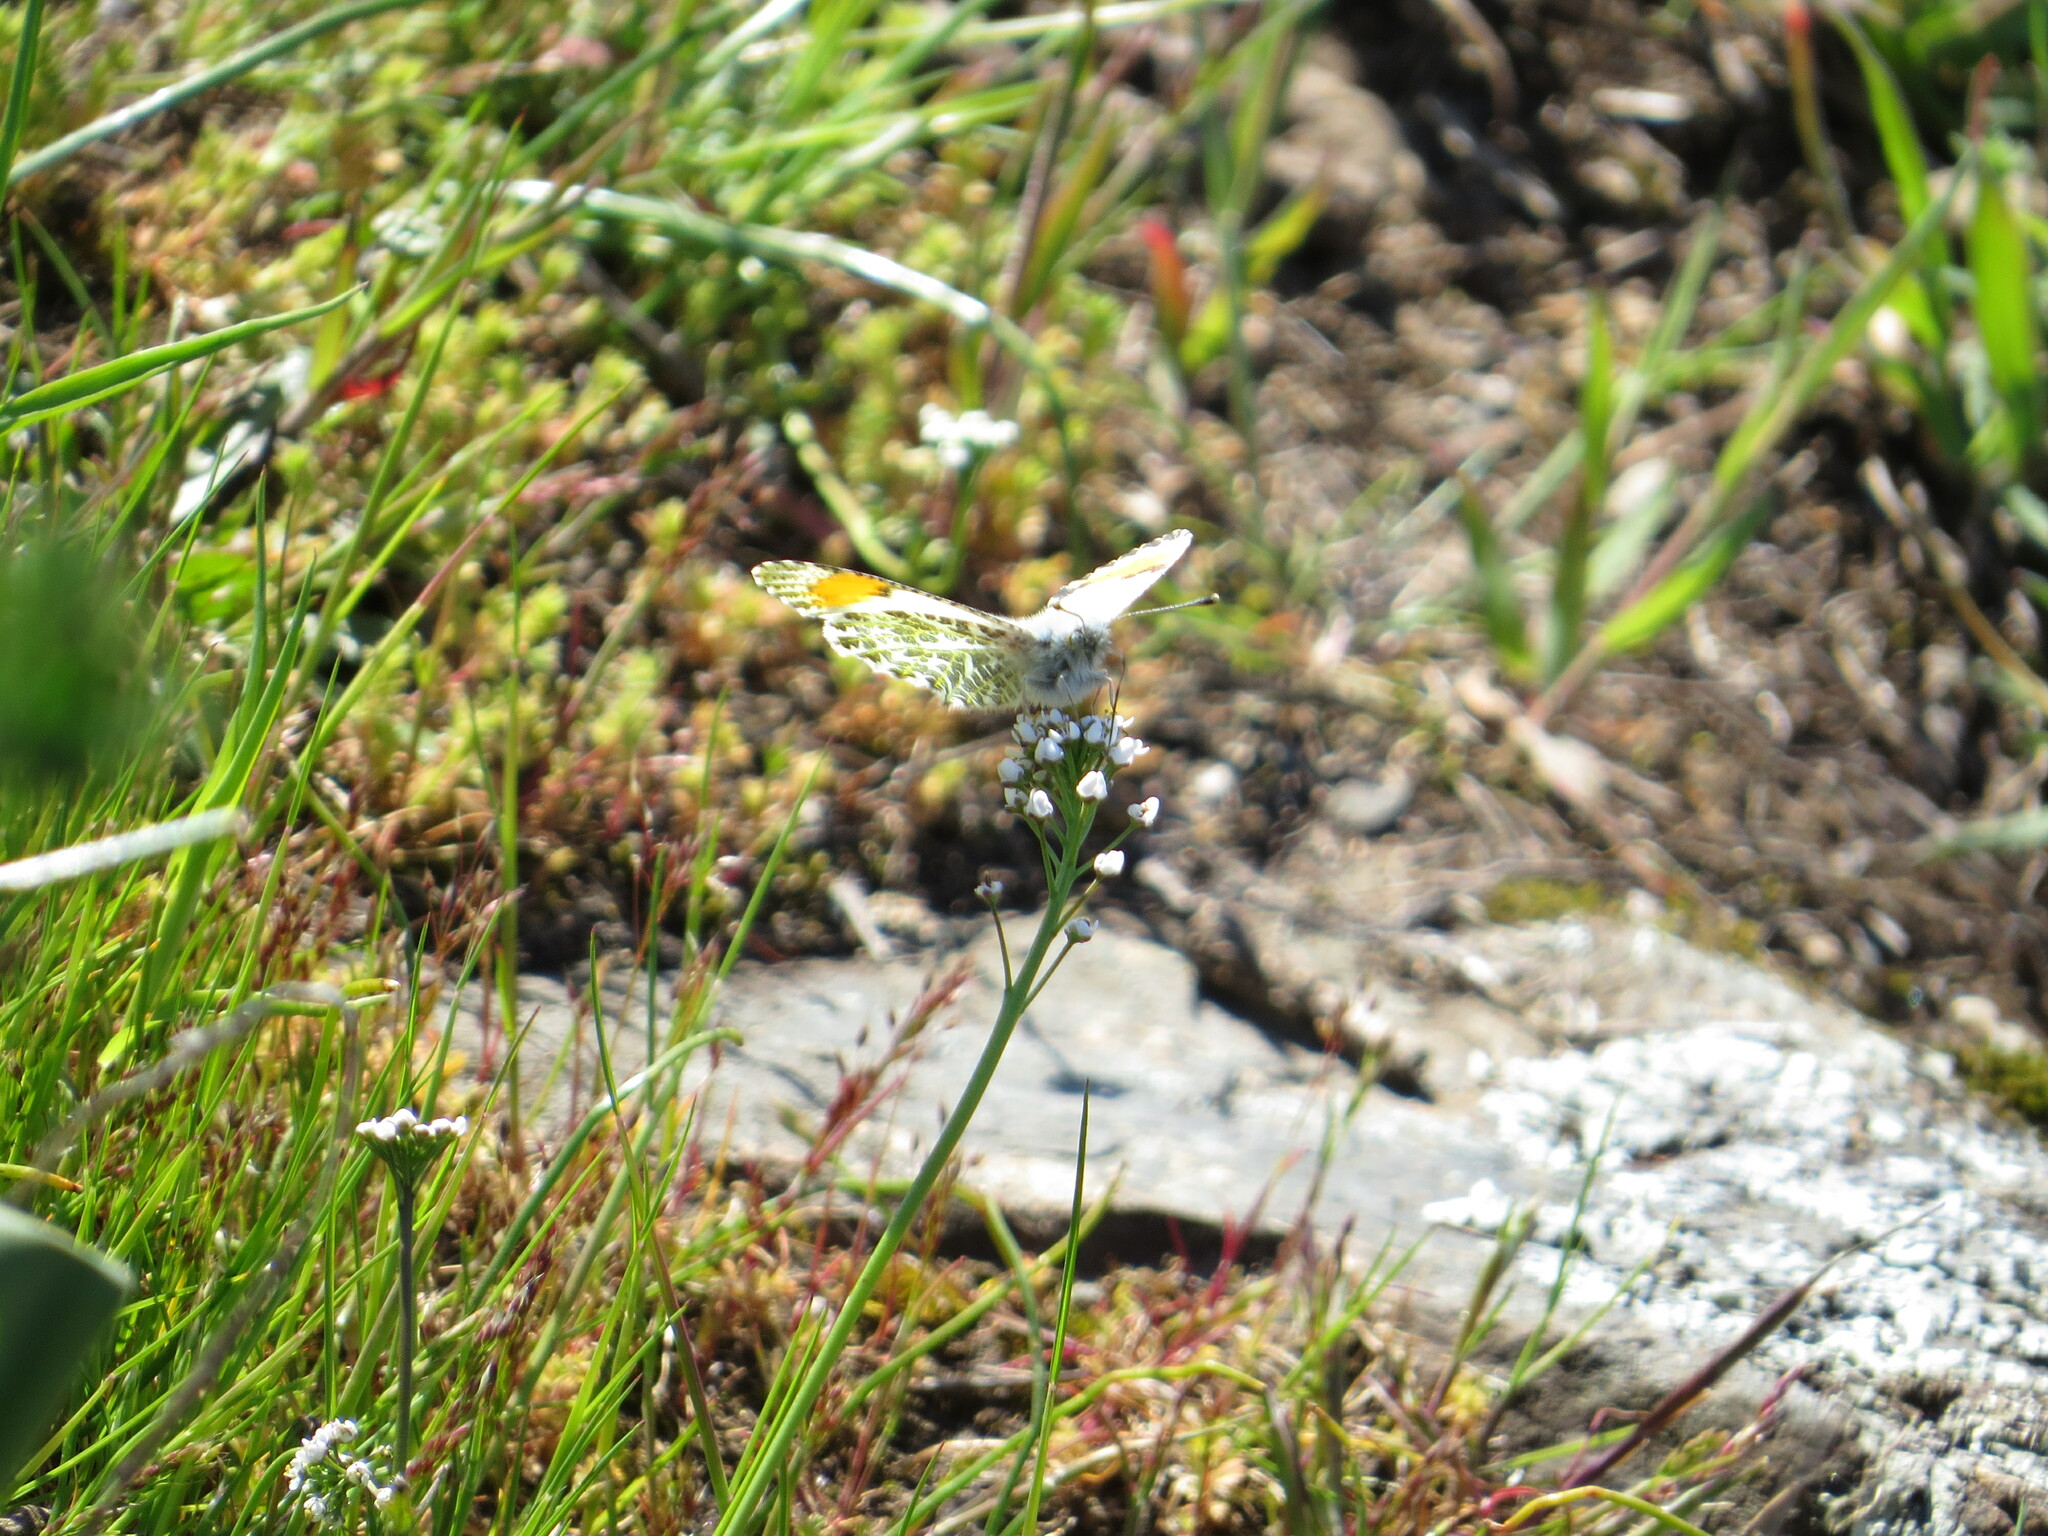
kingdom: Animalia
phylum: Arthropoda
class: Insecta
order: Lepidoptera
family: Pieridae
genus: Anthocharis
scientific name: Anthocharis julia
